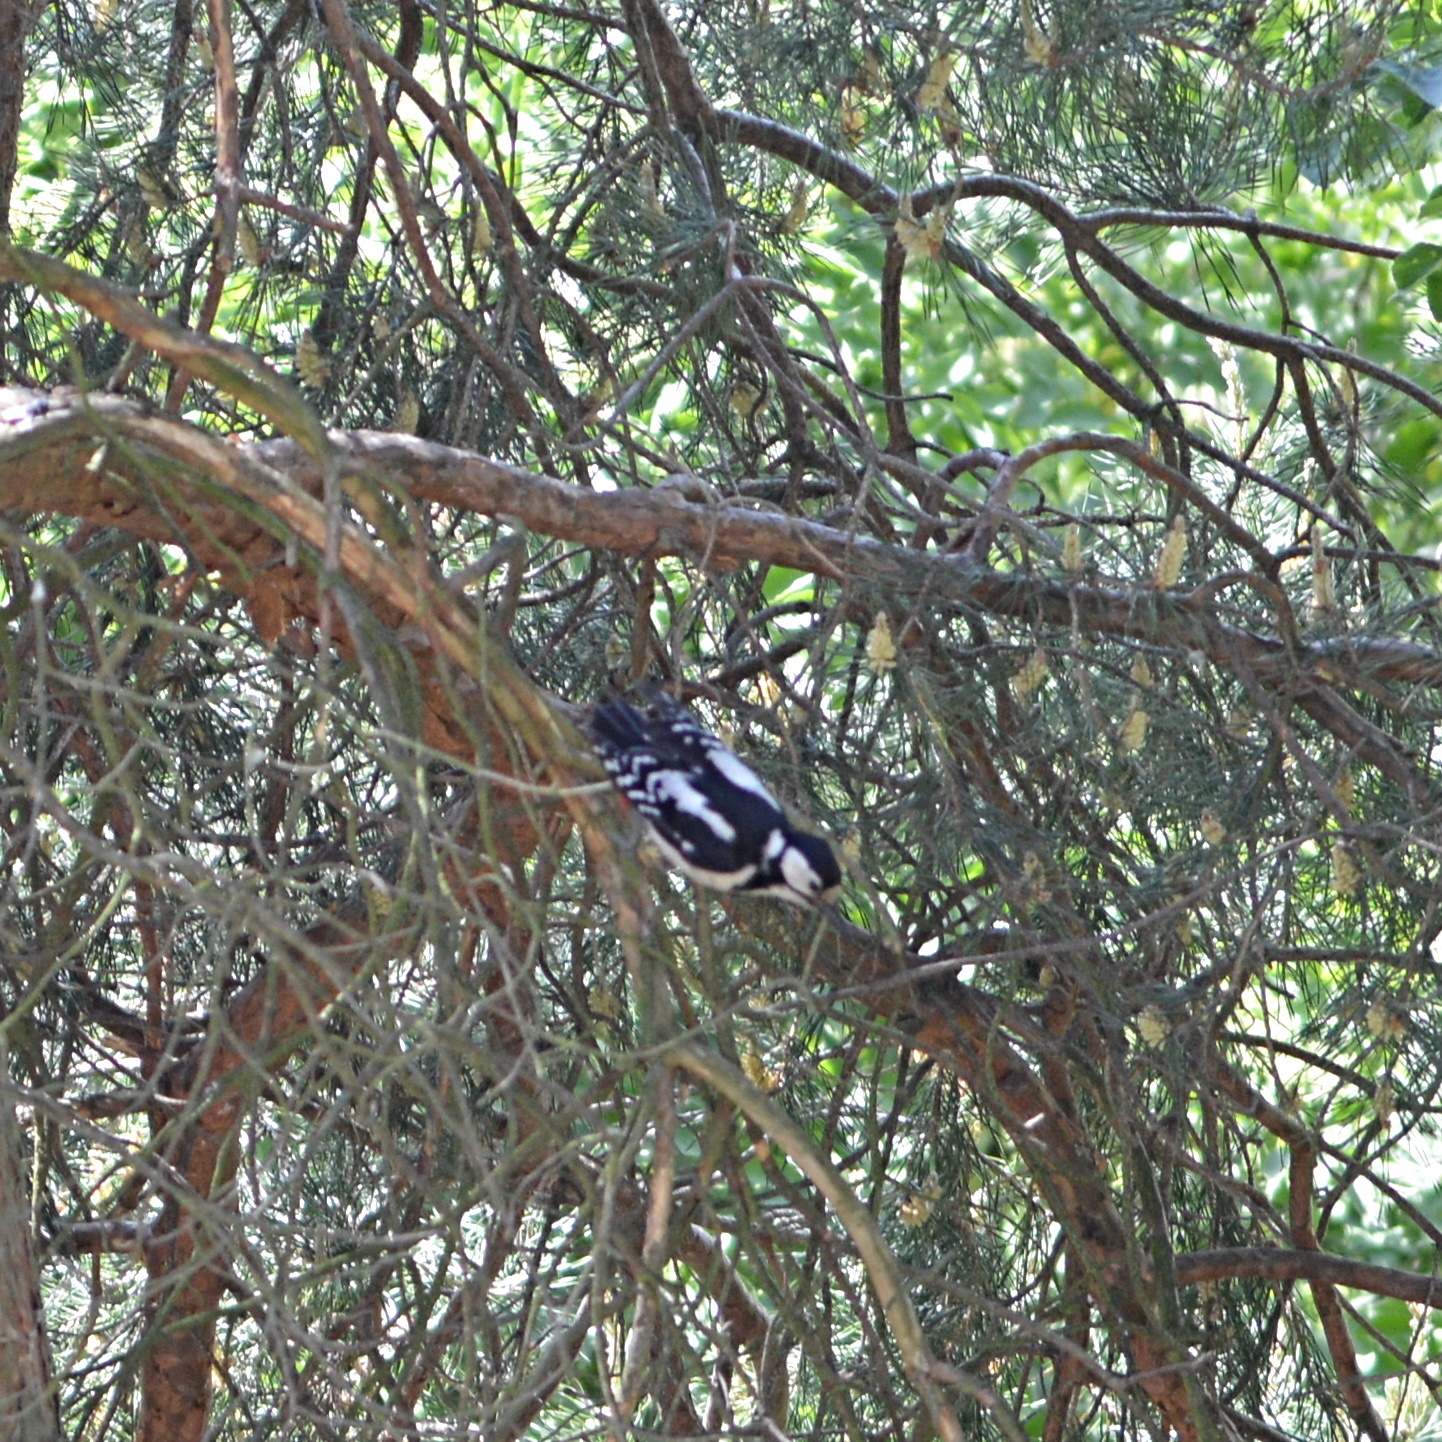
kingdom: Animalia
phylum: Chordata
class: Aves
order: Piciformes
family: Picidae
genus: Dendrocopos
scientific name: Dendrocopos major
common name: Great spotted woodpecker
